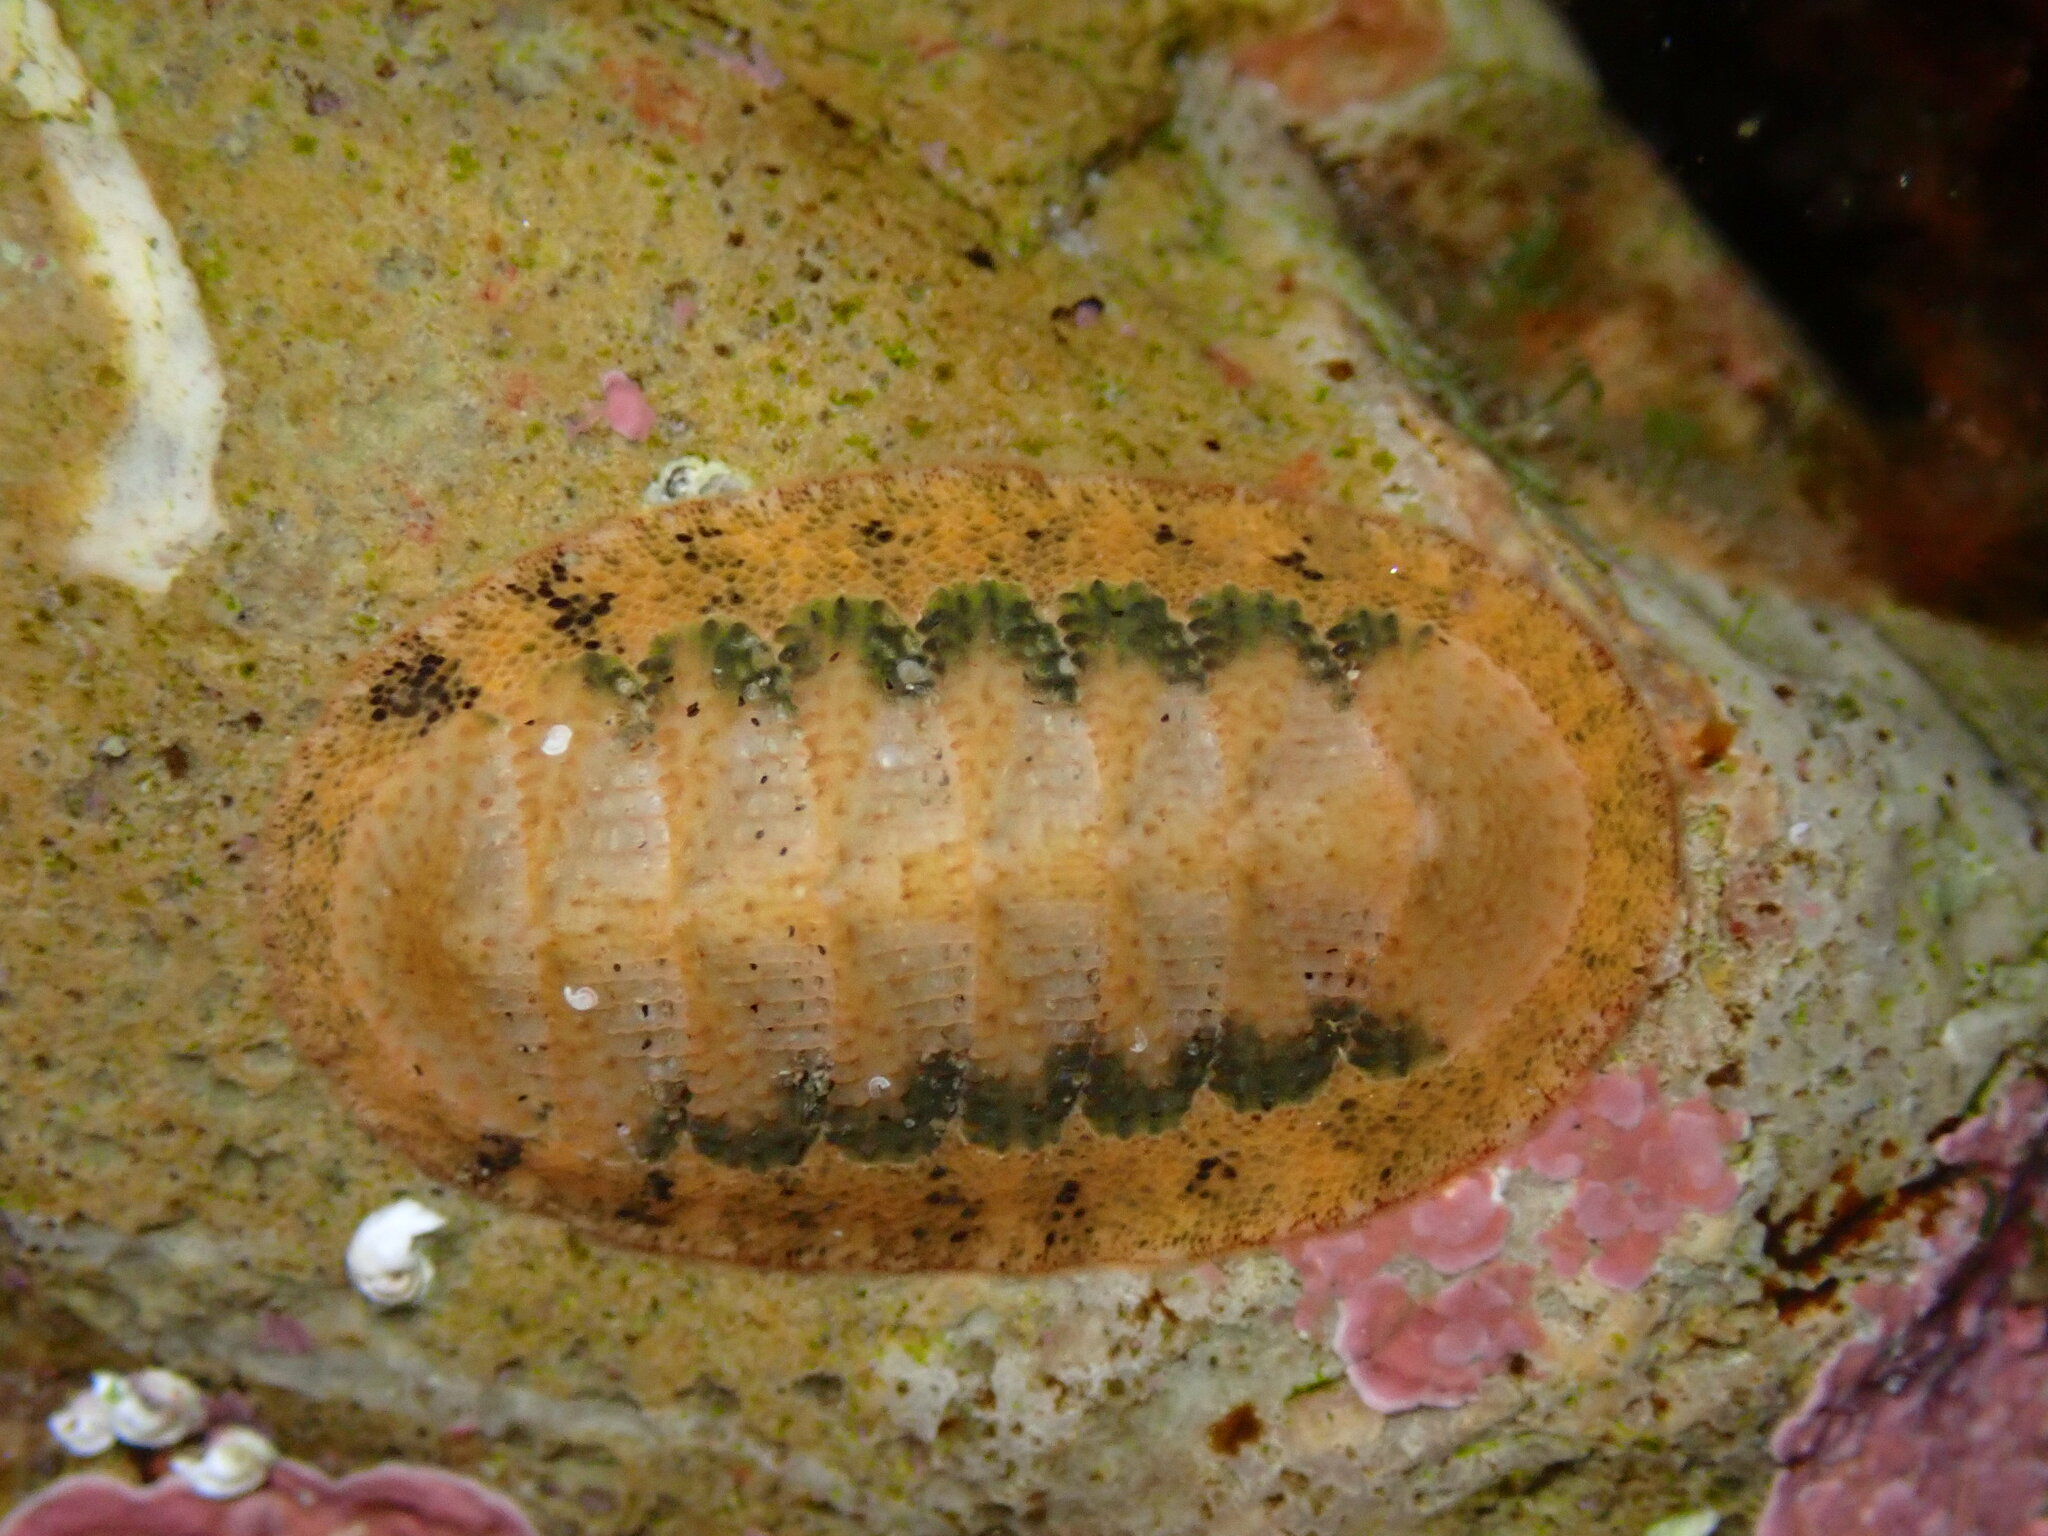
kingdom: Animalia
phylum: Mollusca
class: Polyplacophora
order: Chitonida
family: Ischnochitonidae
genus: Lepidozona
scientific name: Lepidozona pectinulata
